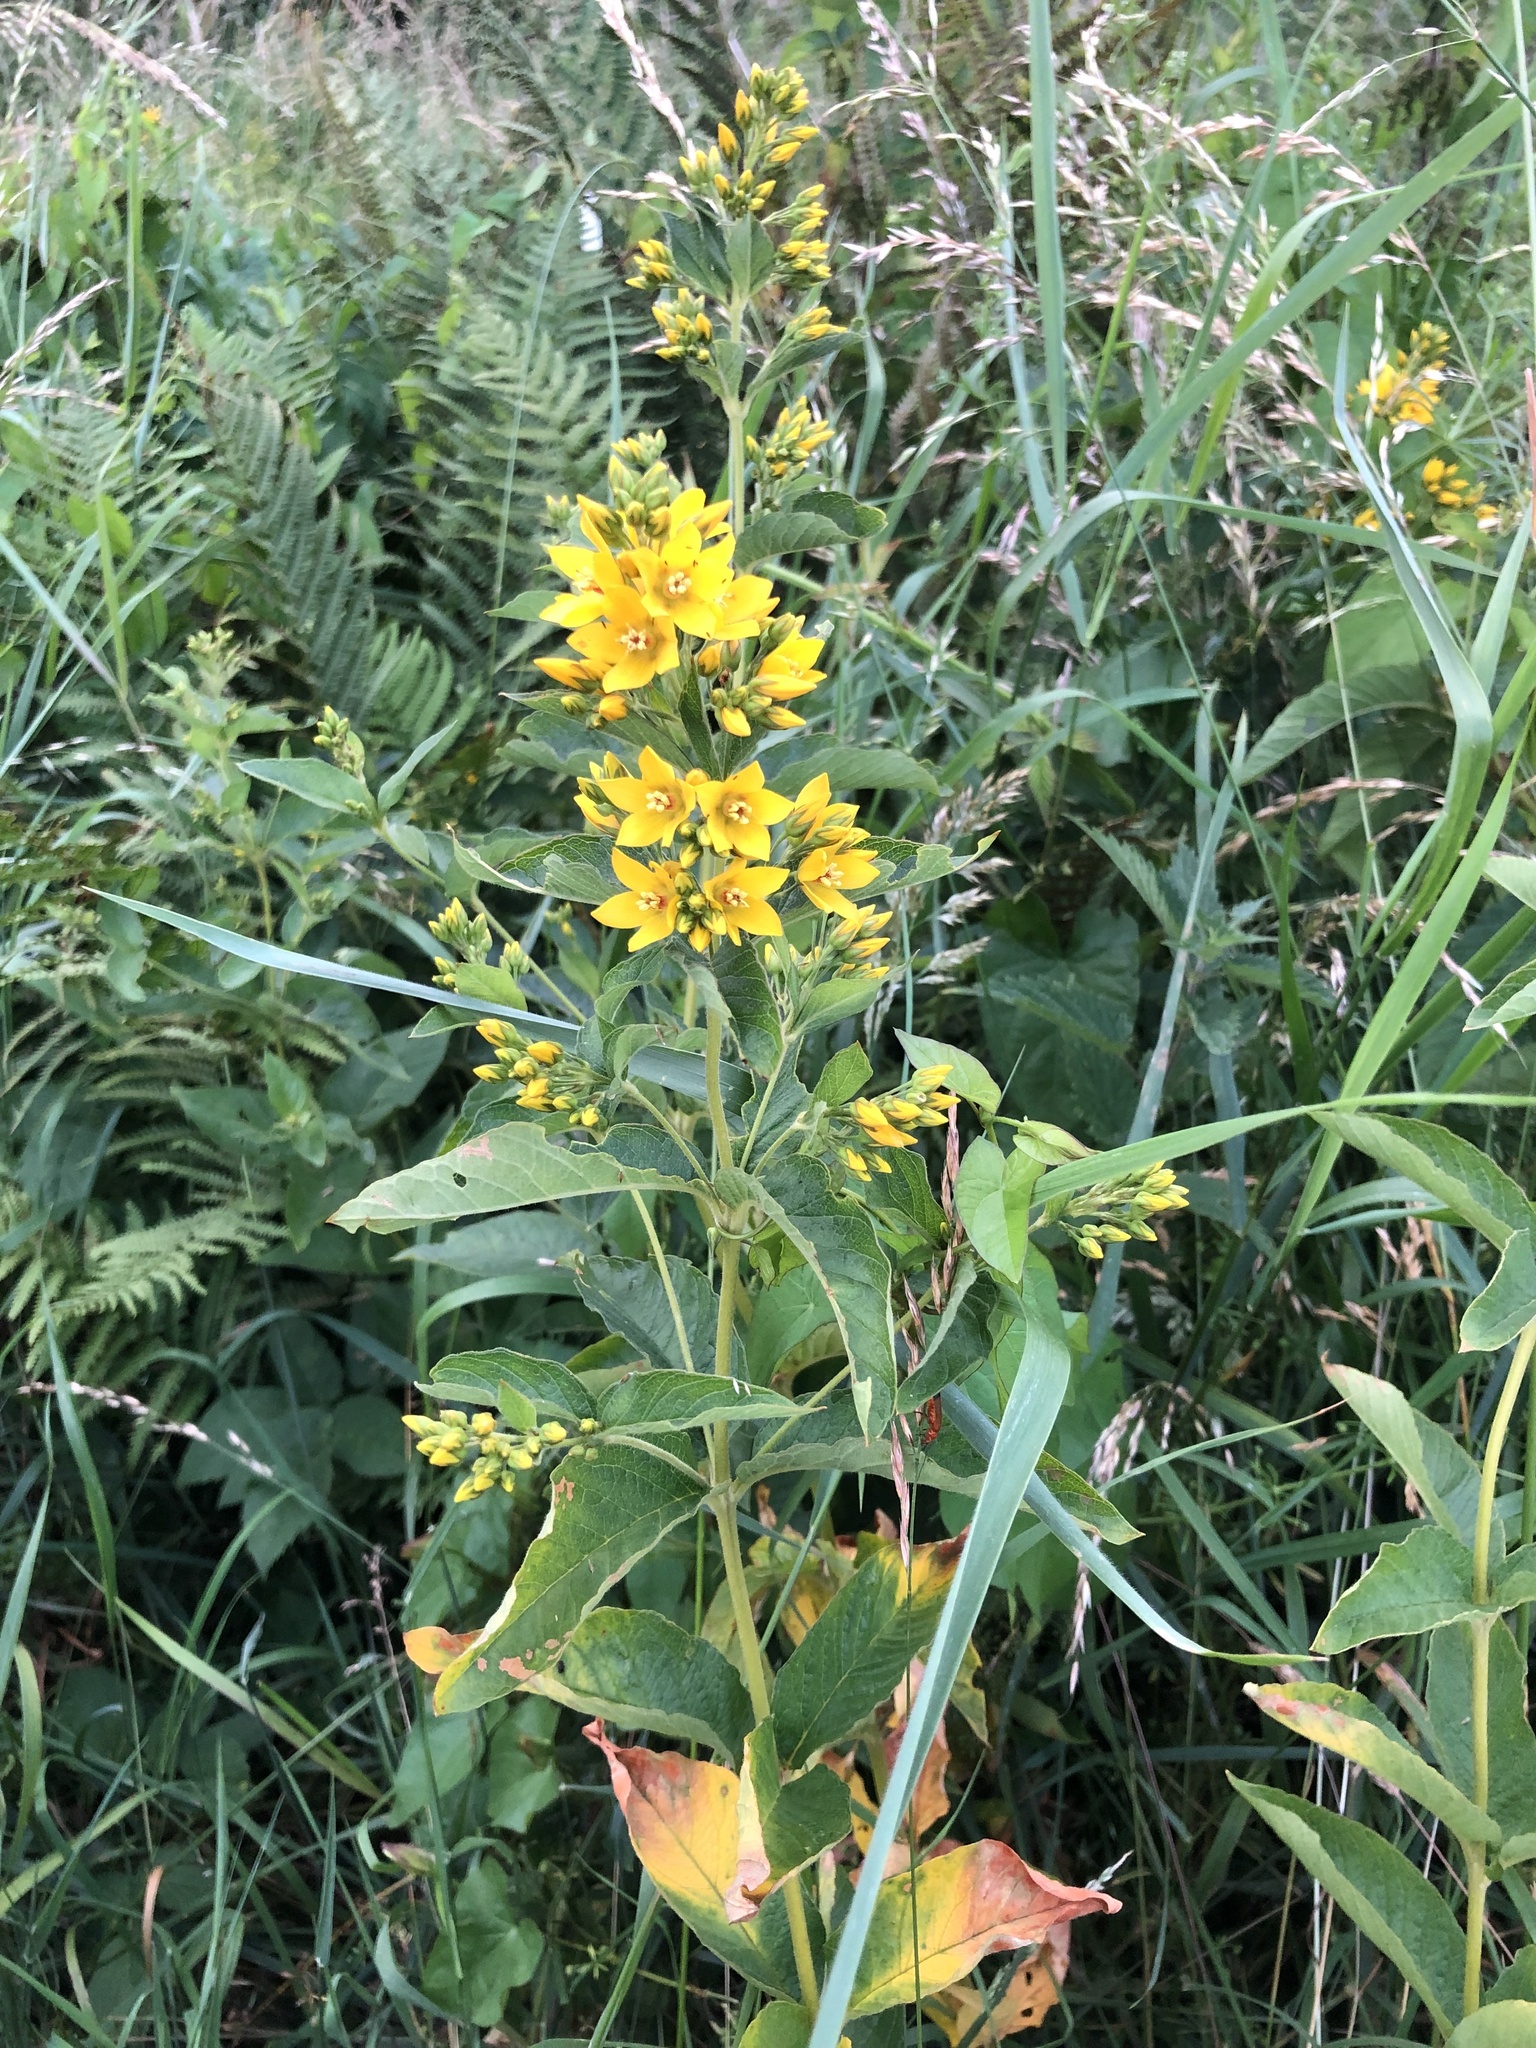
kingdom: Plantae
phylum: Tracheophyta
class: Magnoliopsida
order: Ericales
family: Primulaceae
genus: Lysimachia
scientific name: Lysimachia vulgaris
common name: Yellow loosestrife
